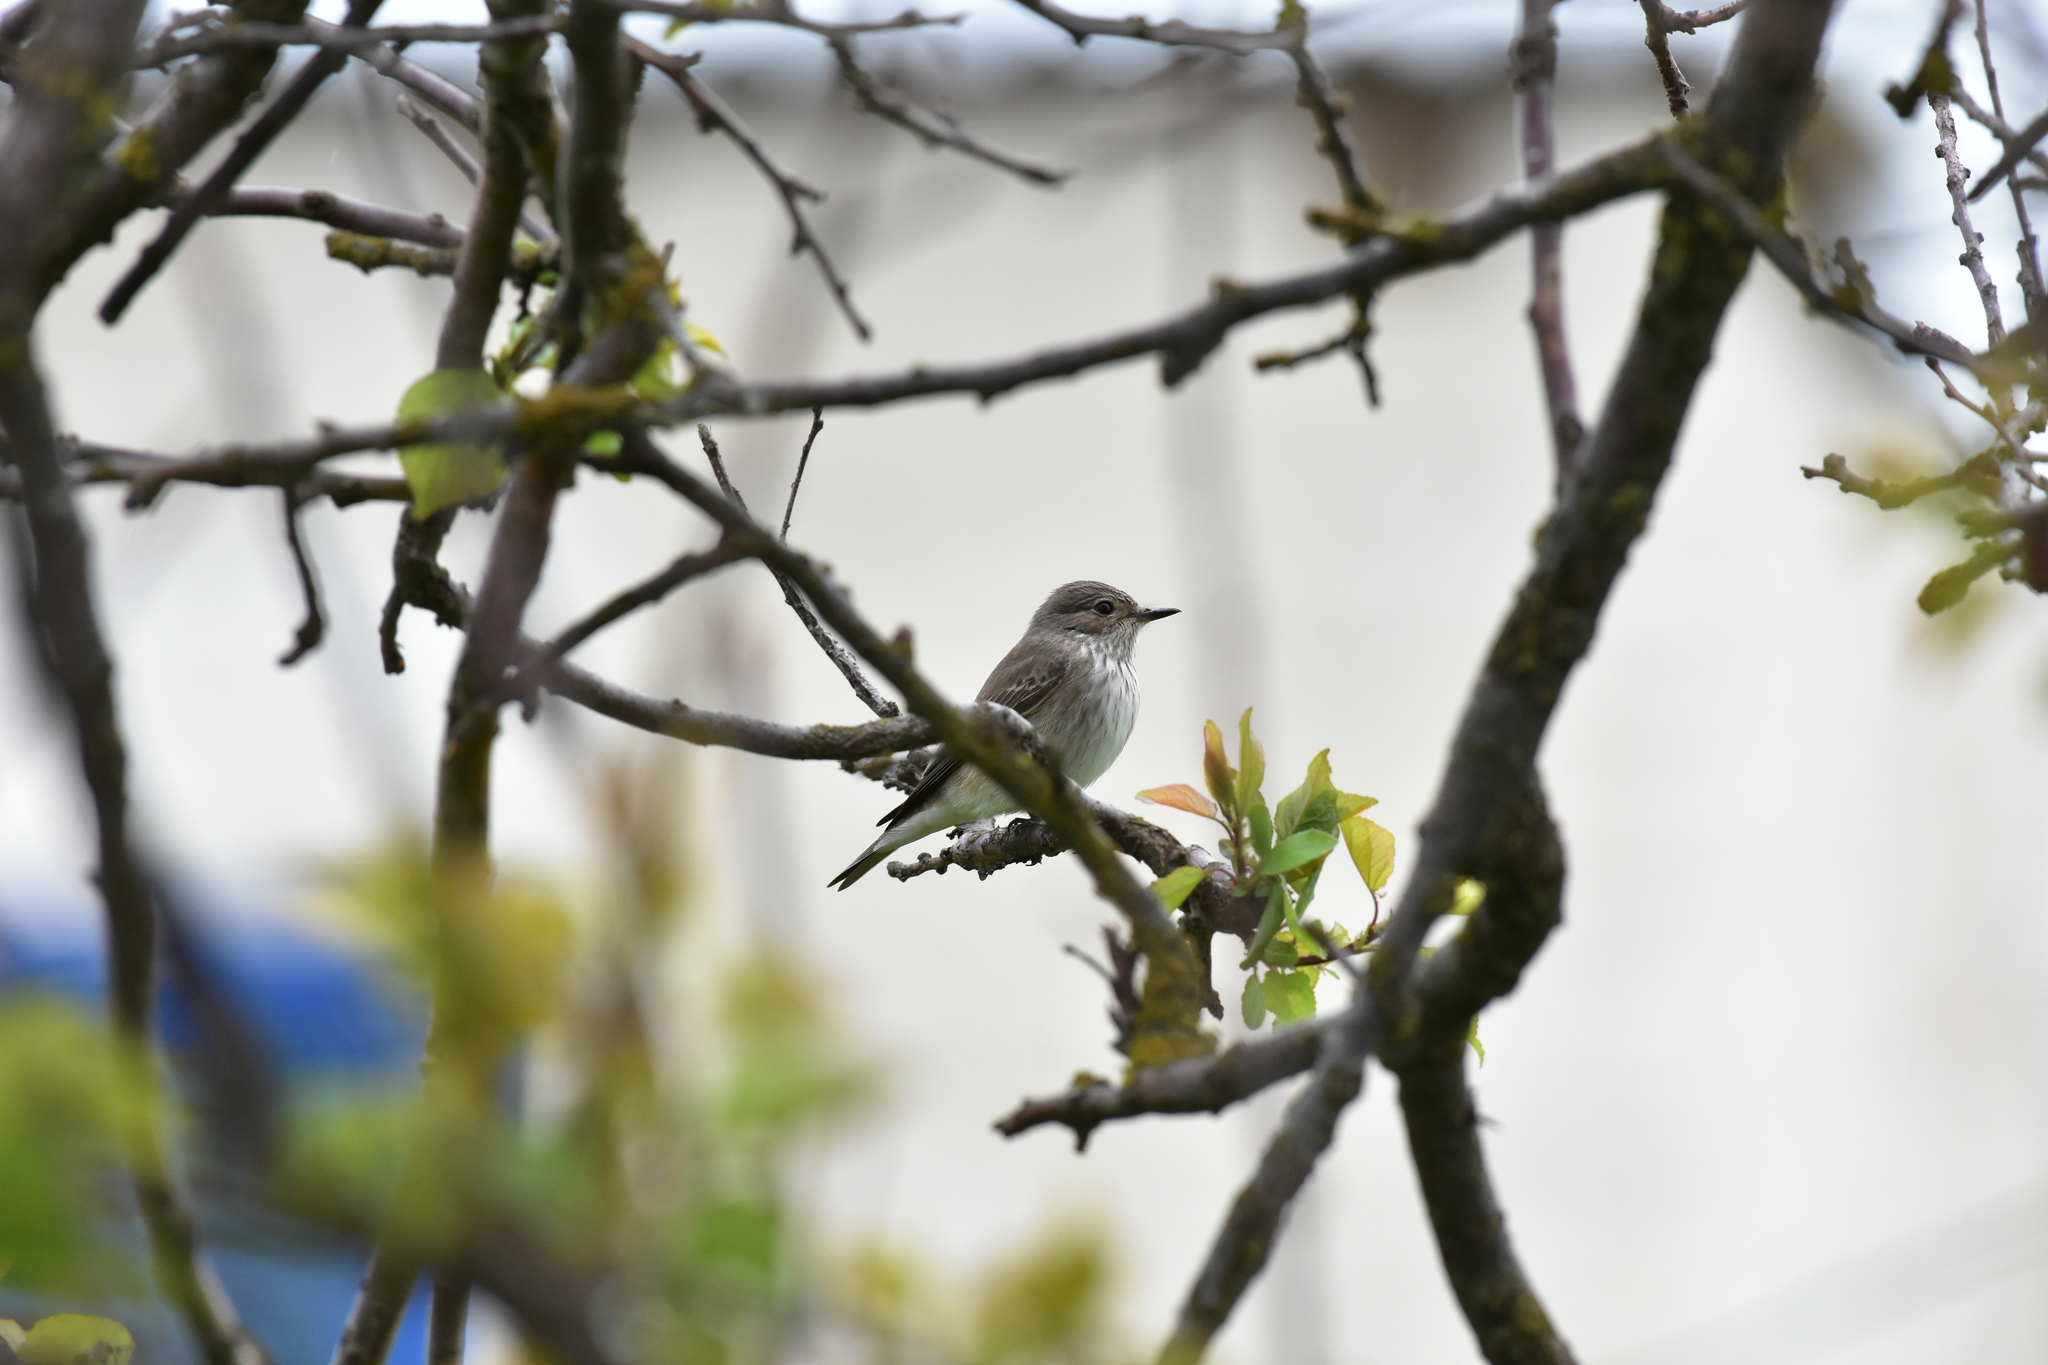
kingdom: Animalia
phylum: Chordata
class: Aves
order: Passeriformes
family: Muscicapidae
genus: Muscicapa
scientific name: Muscicapa striata
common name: Spotted flycatcher
